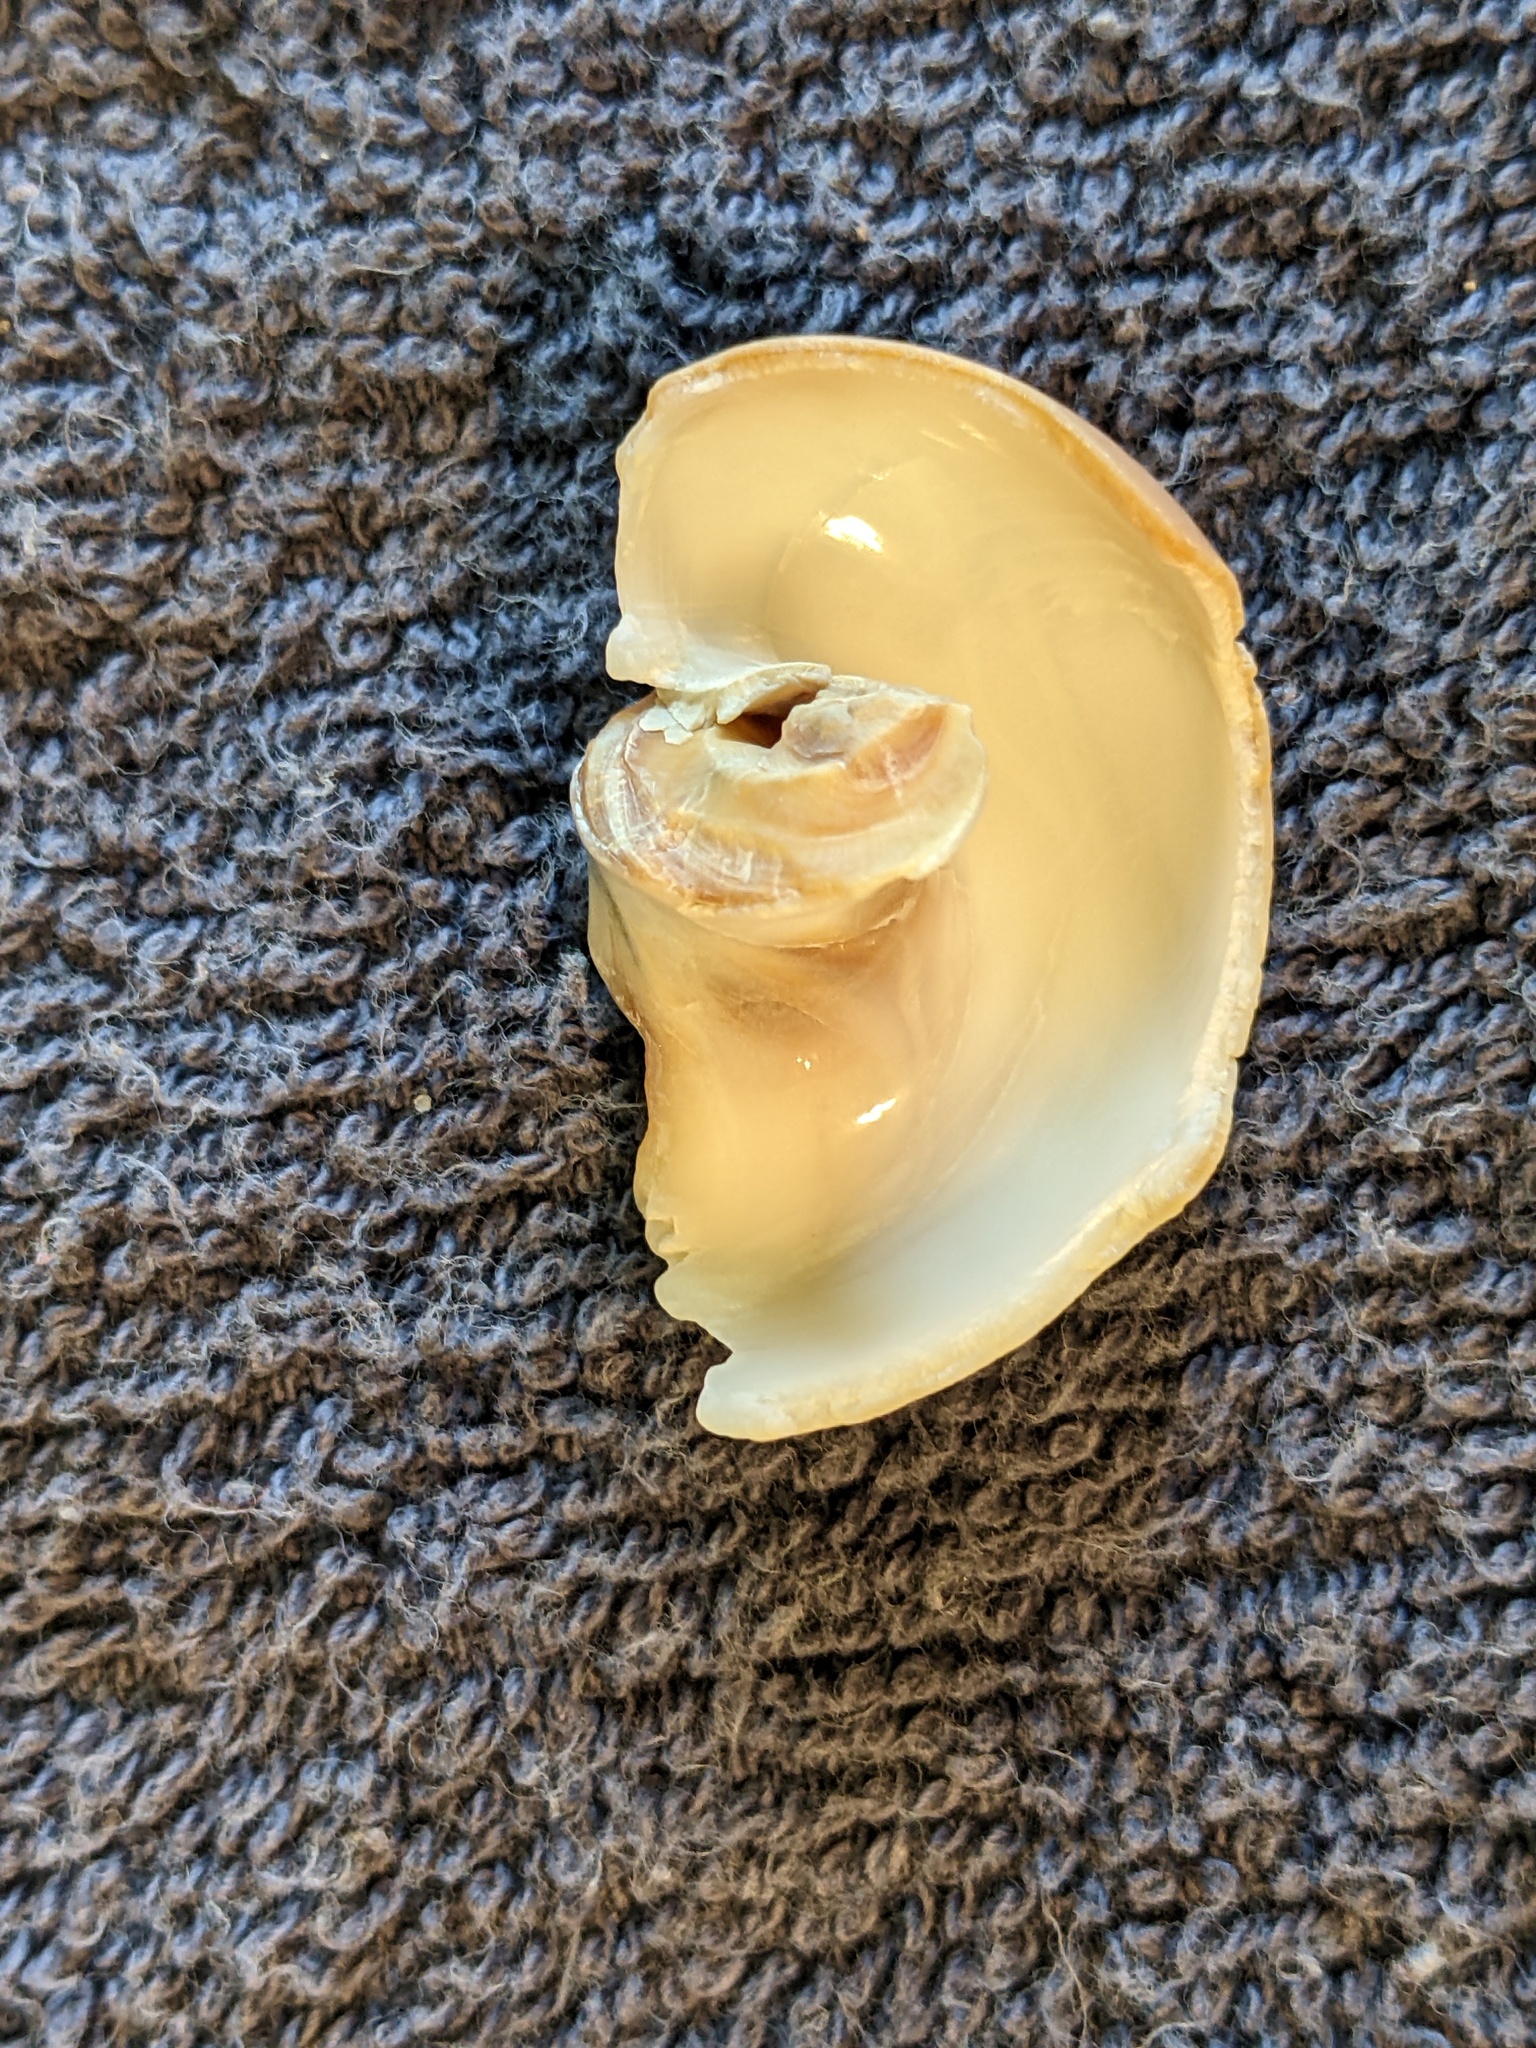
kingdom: Animalia
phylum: Mollusca
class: Gastropoda
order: Littorinimorpha
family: Naticidae
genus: Neverita
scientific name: Neverita duplicata
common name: Lobed moonsnail
